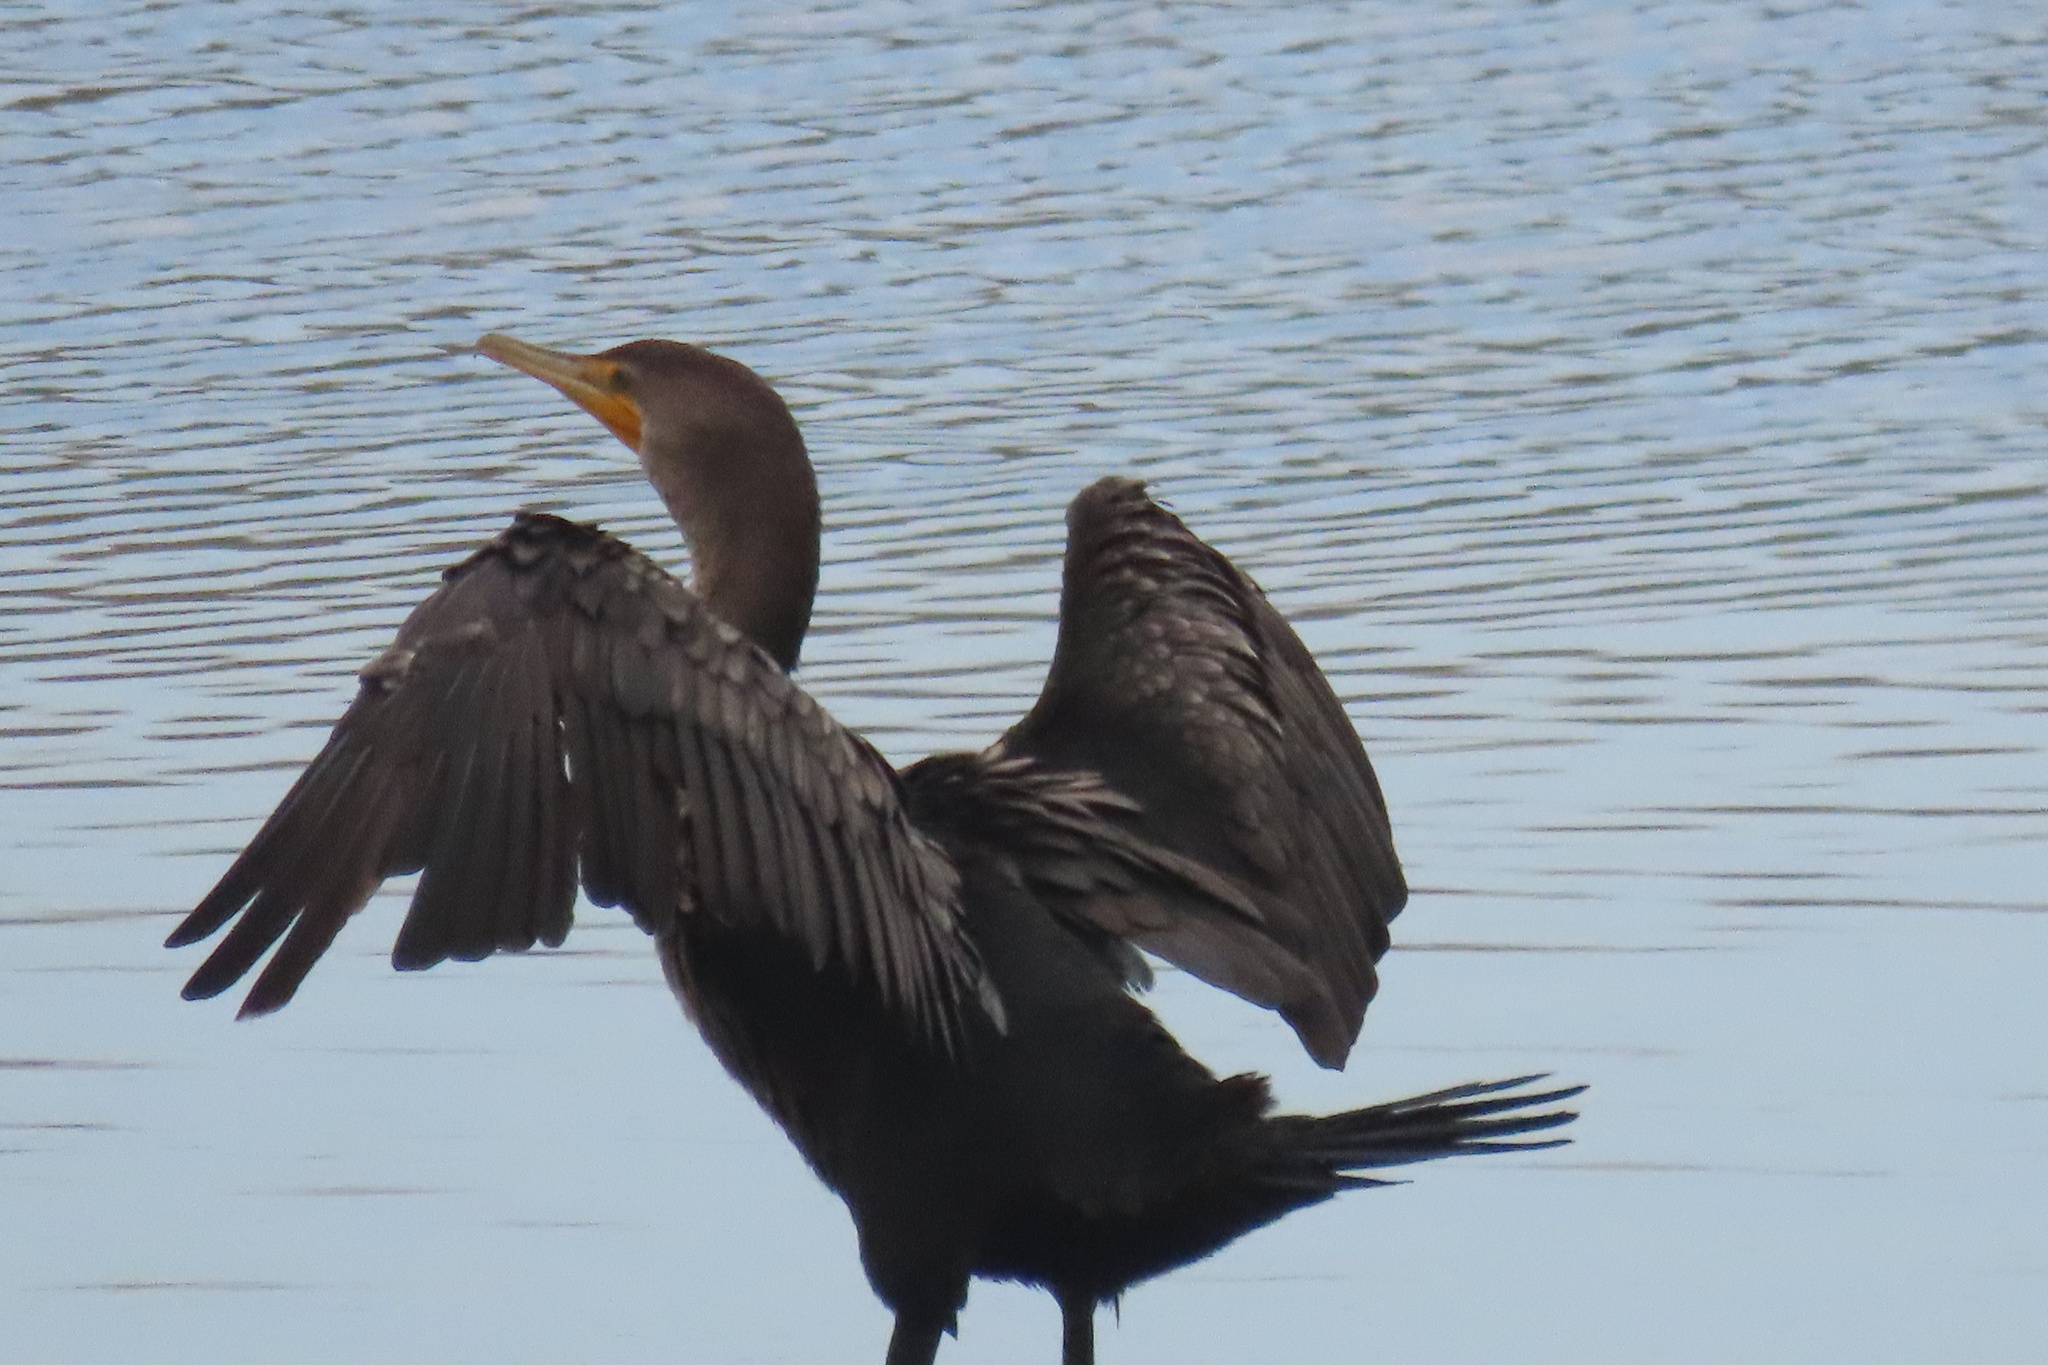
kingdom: Animalia
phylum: Chordata
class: Aves
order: Suliformes
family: Phalacrocoracidae
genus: Phalacrocorax
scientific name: Phalacrocorax auritus
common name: Double-crested cormorant
